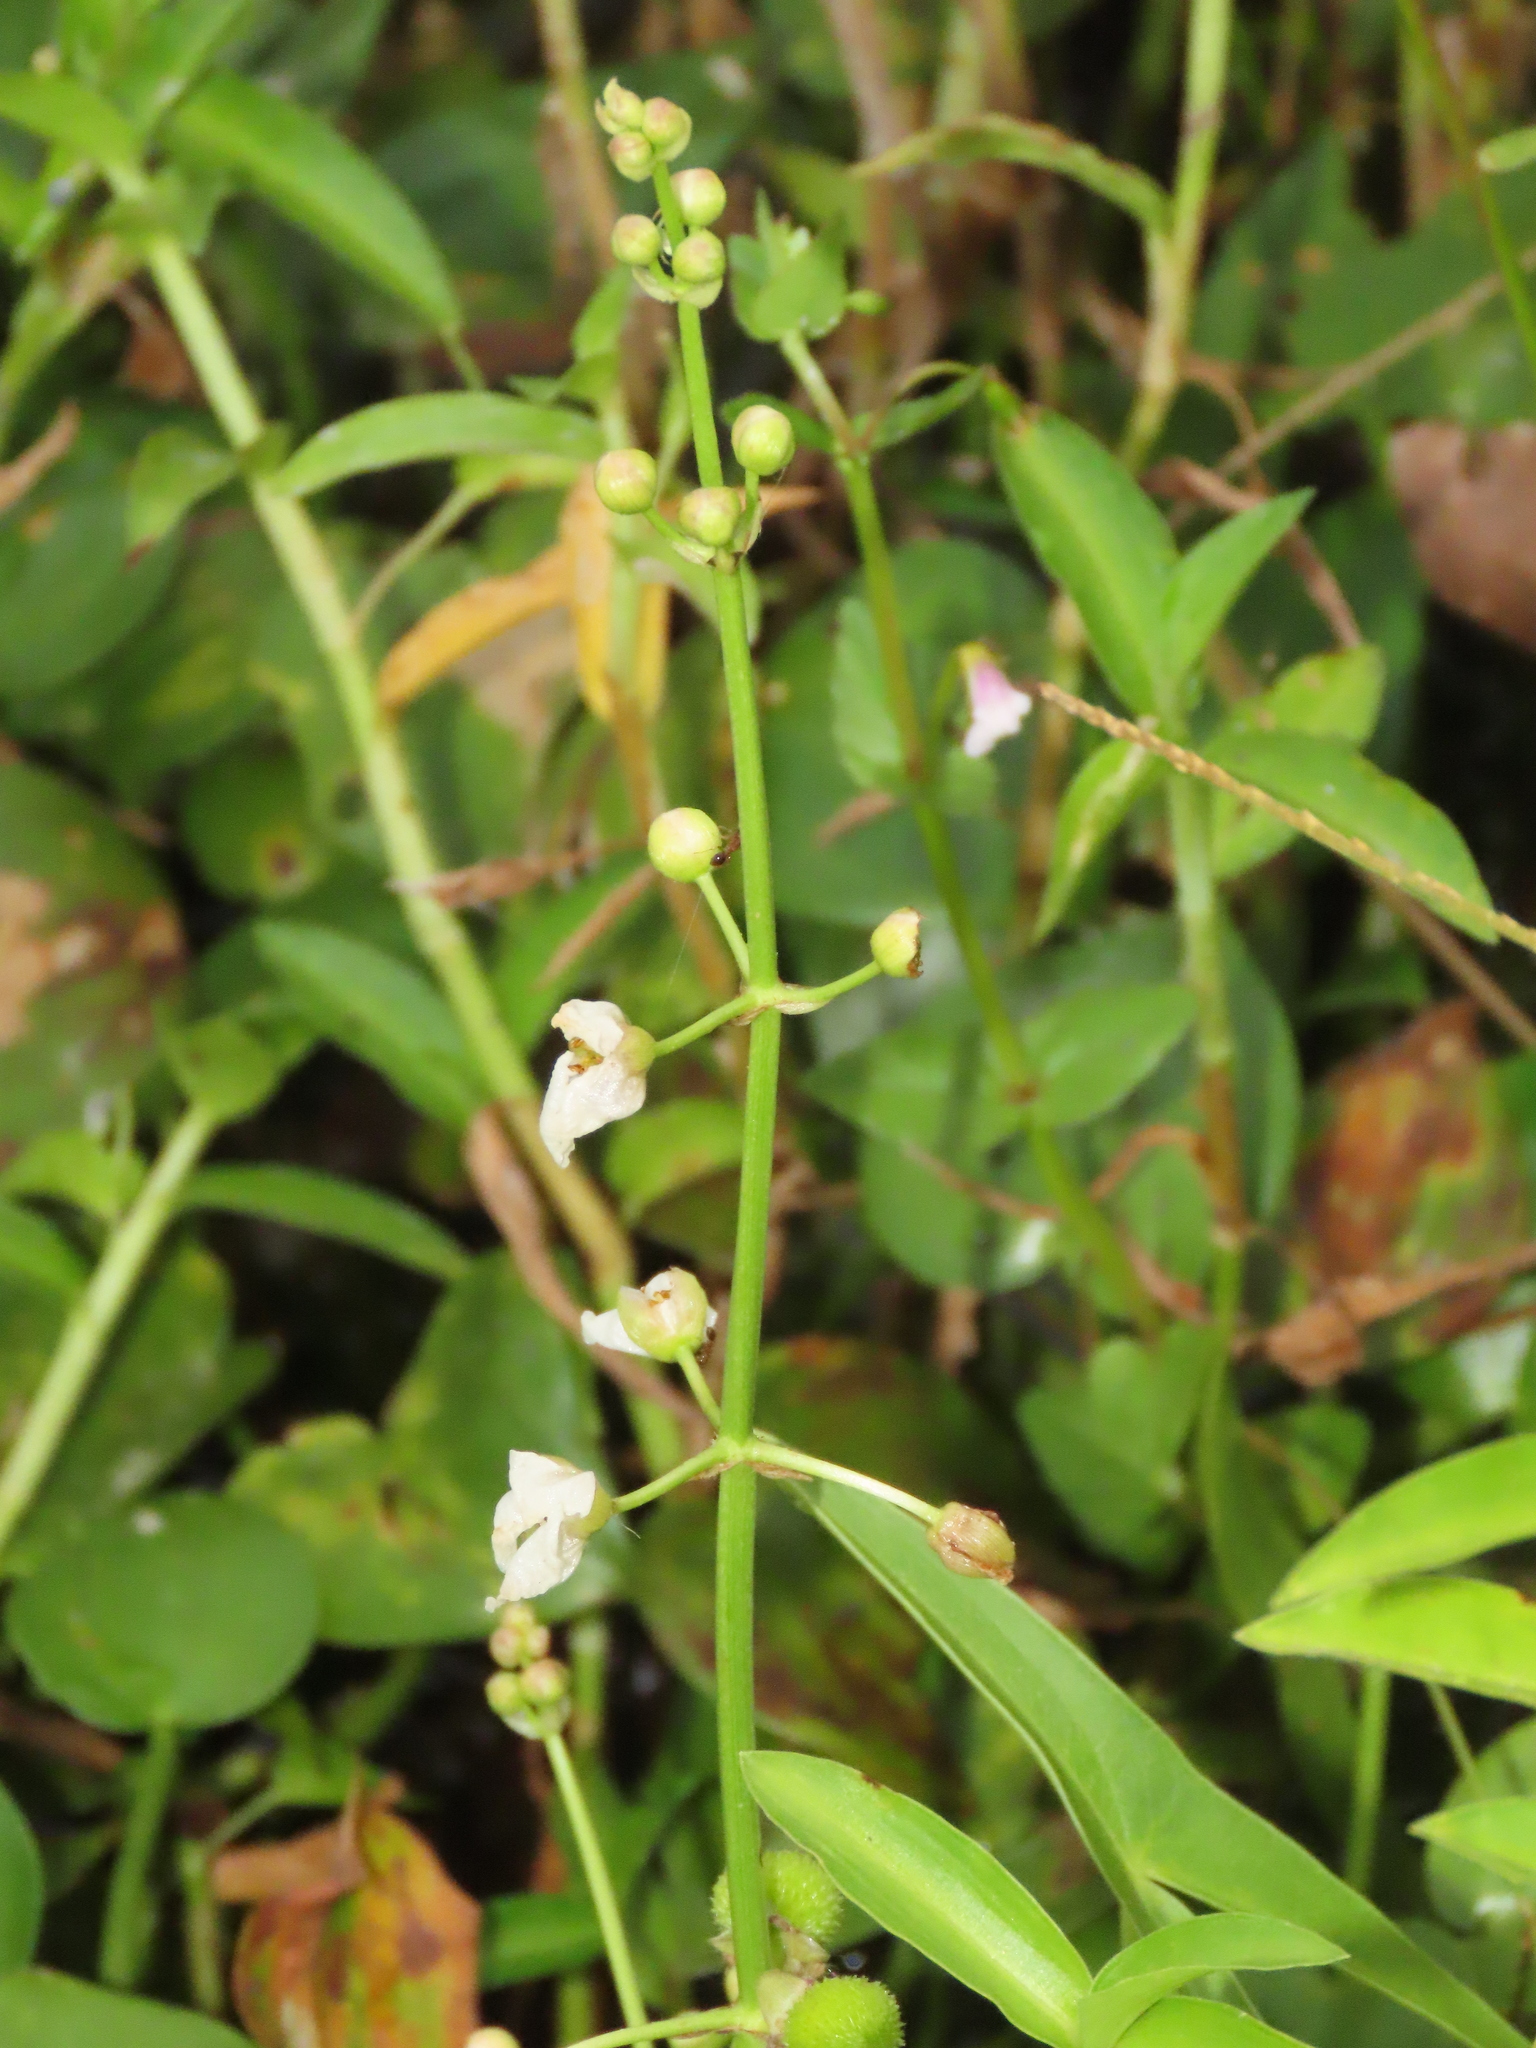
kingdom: Plantae
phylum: Tracheophyta
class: Liliopsida
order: Alismatales
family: Alismataceae
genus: Sagittaria
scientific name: Sagittaria trifolia
